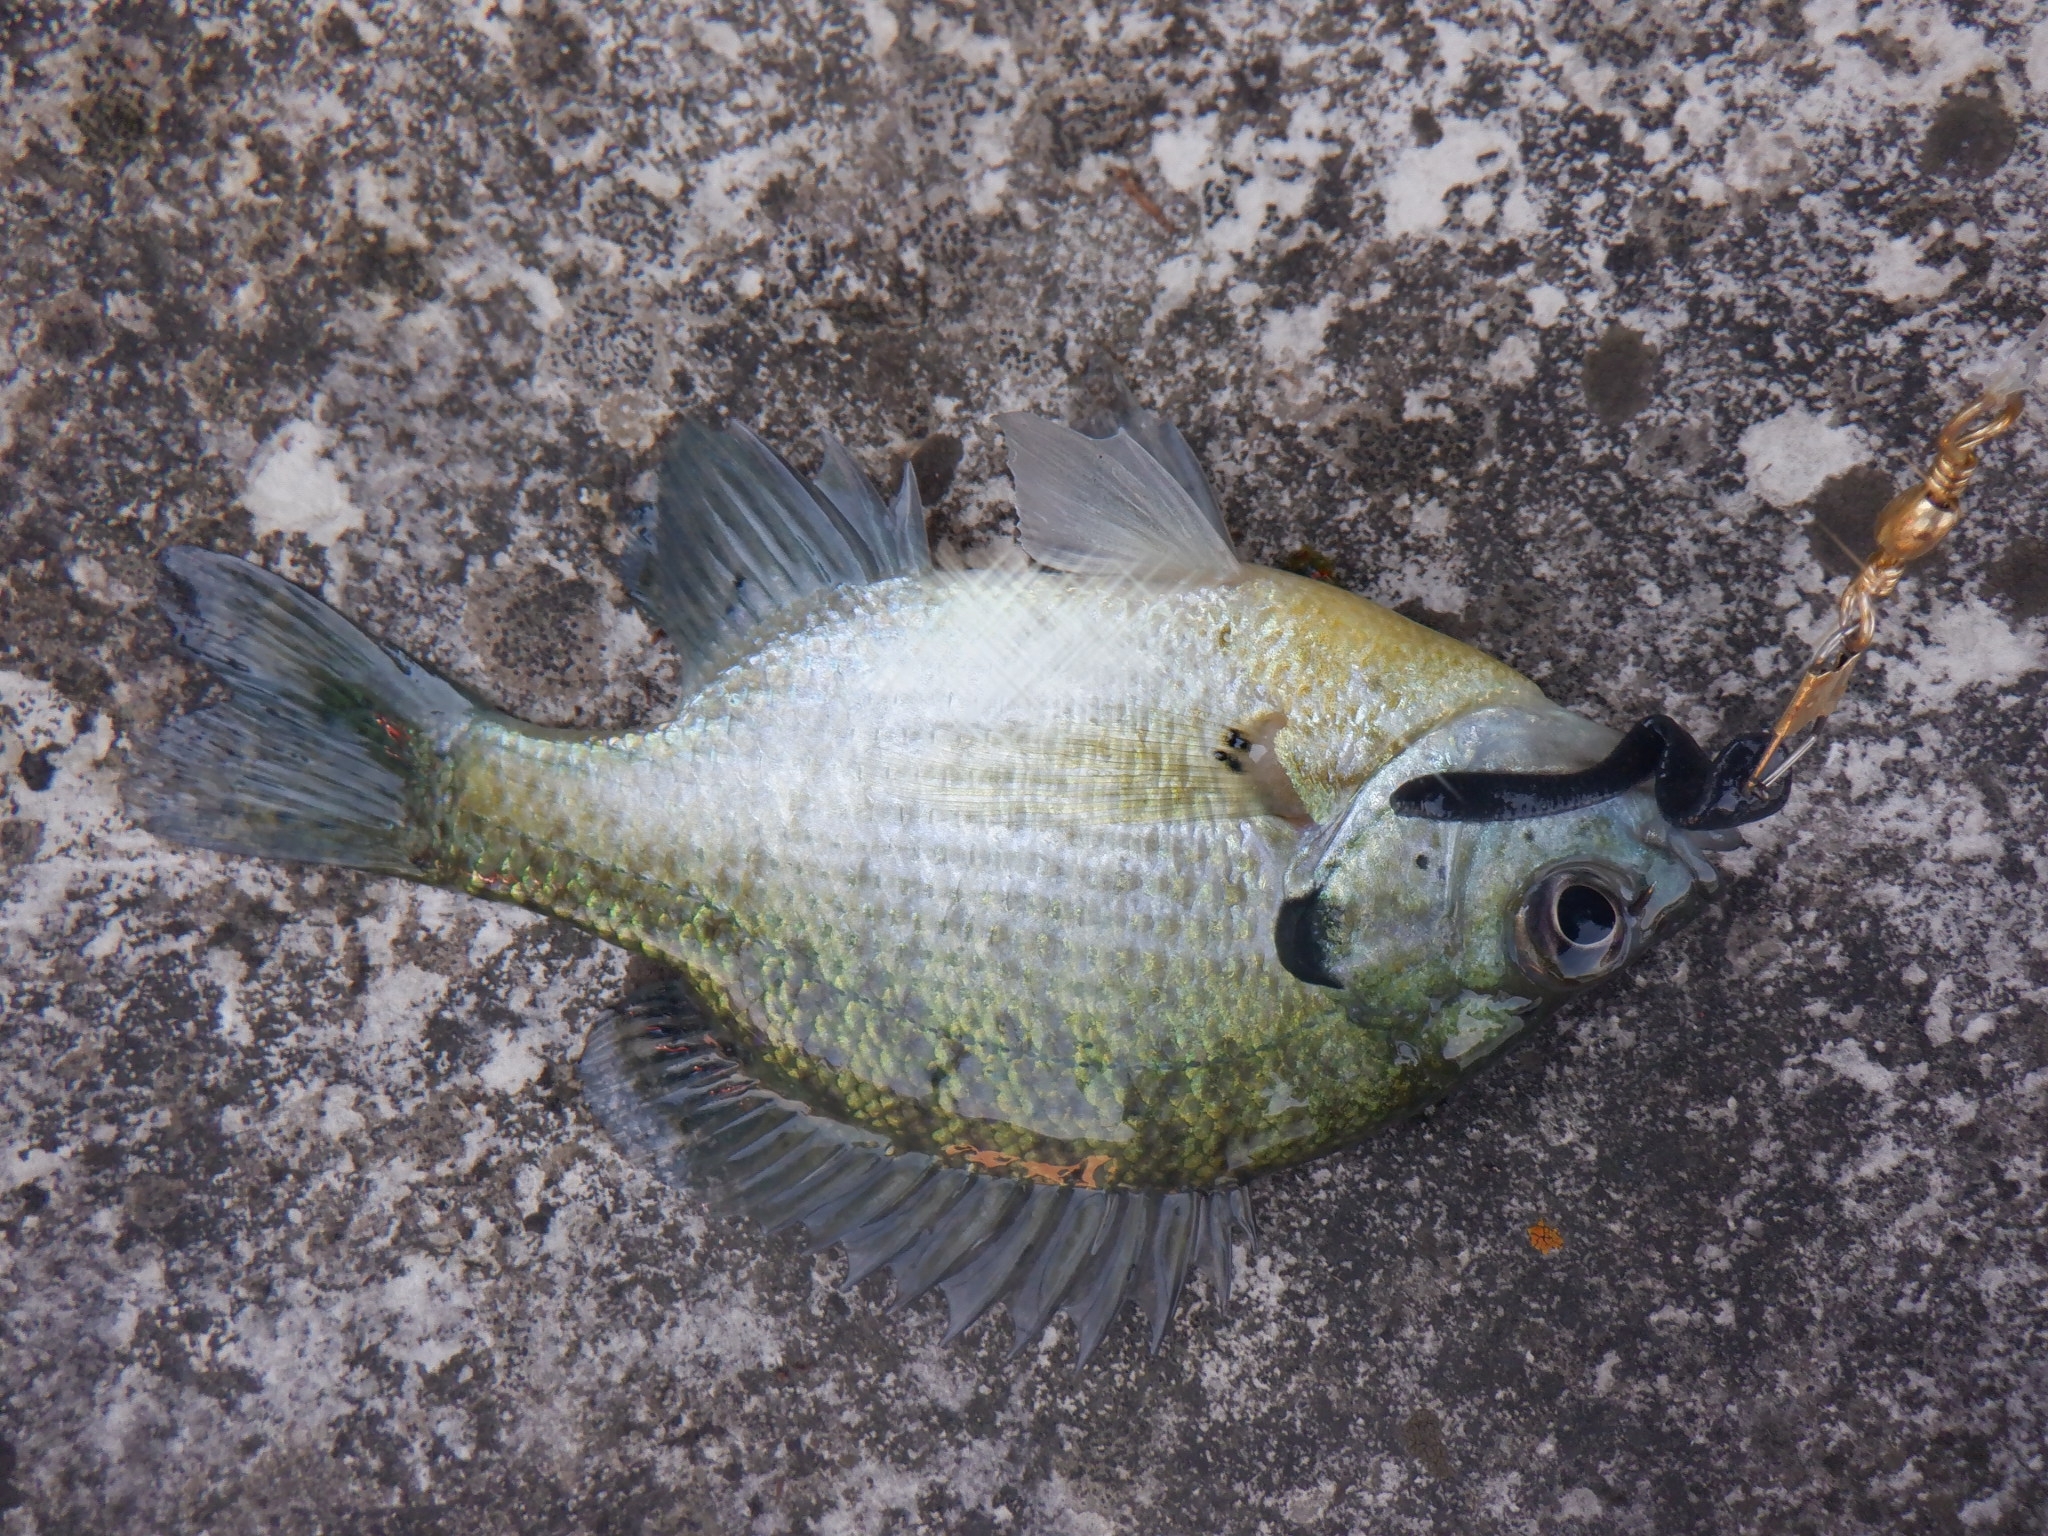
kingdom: Animalia
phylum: Chordata
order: Perciformes
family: Centrarchidae
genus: Lepomis
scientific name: Lepomis macrochirus
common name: Bluegill
